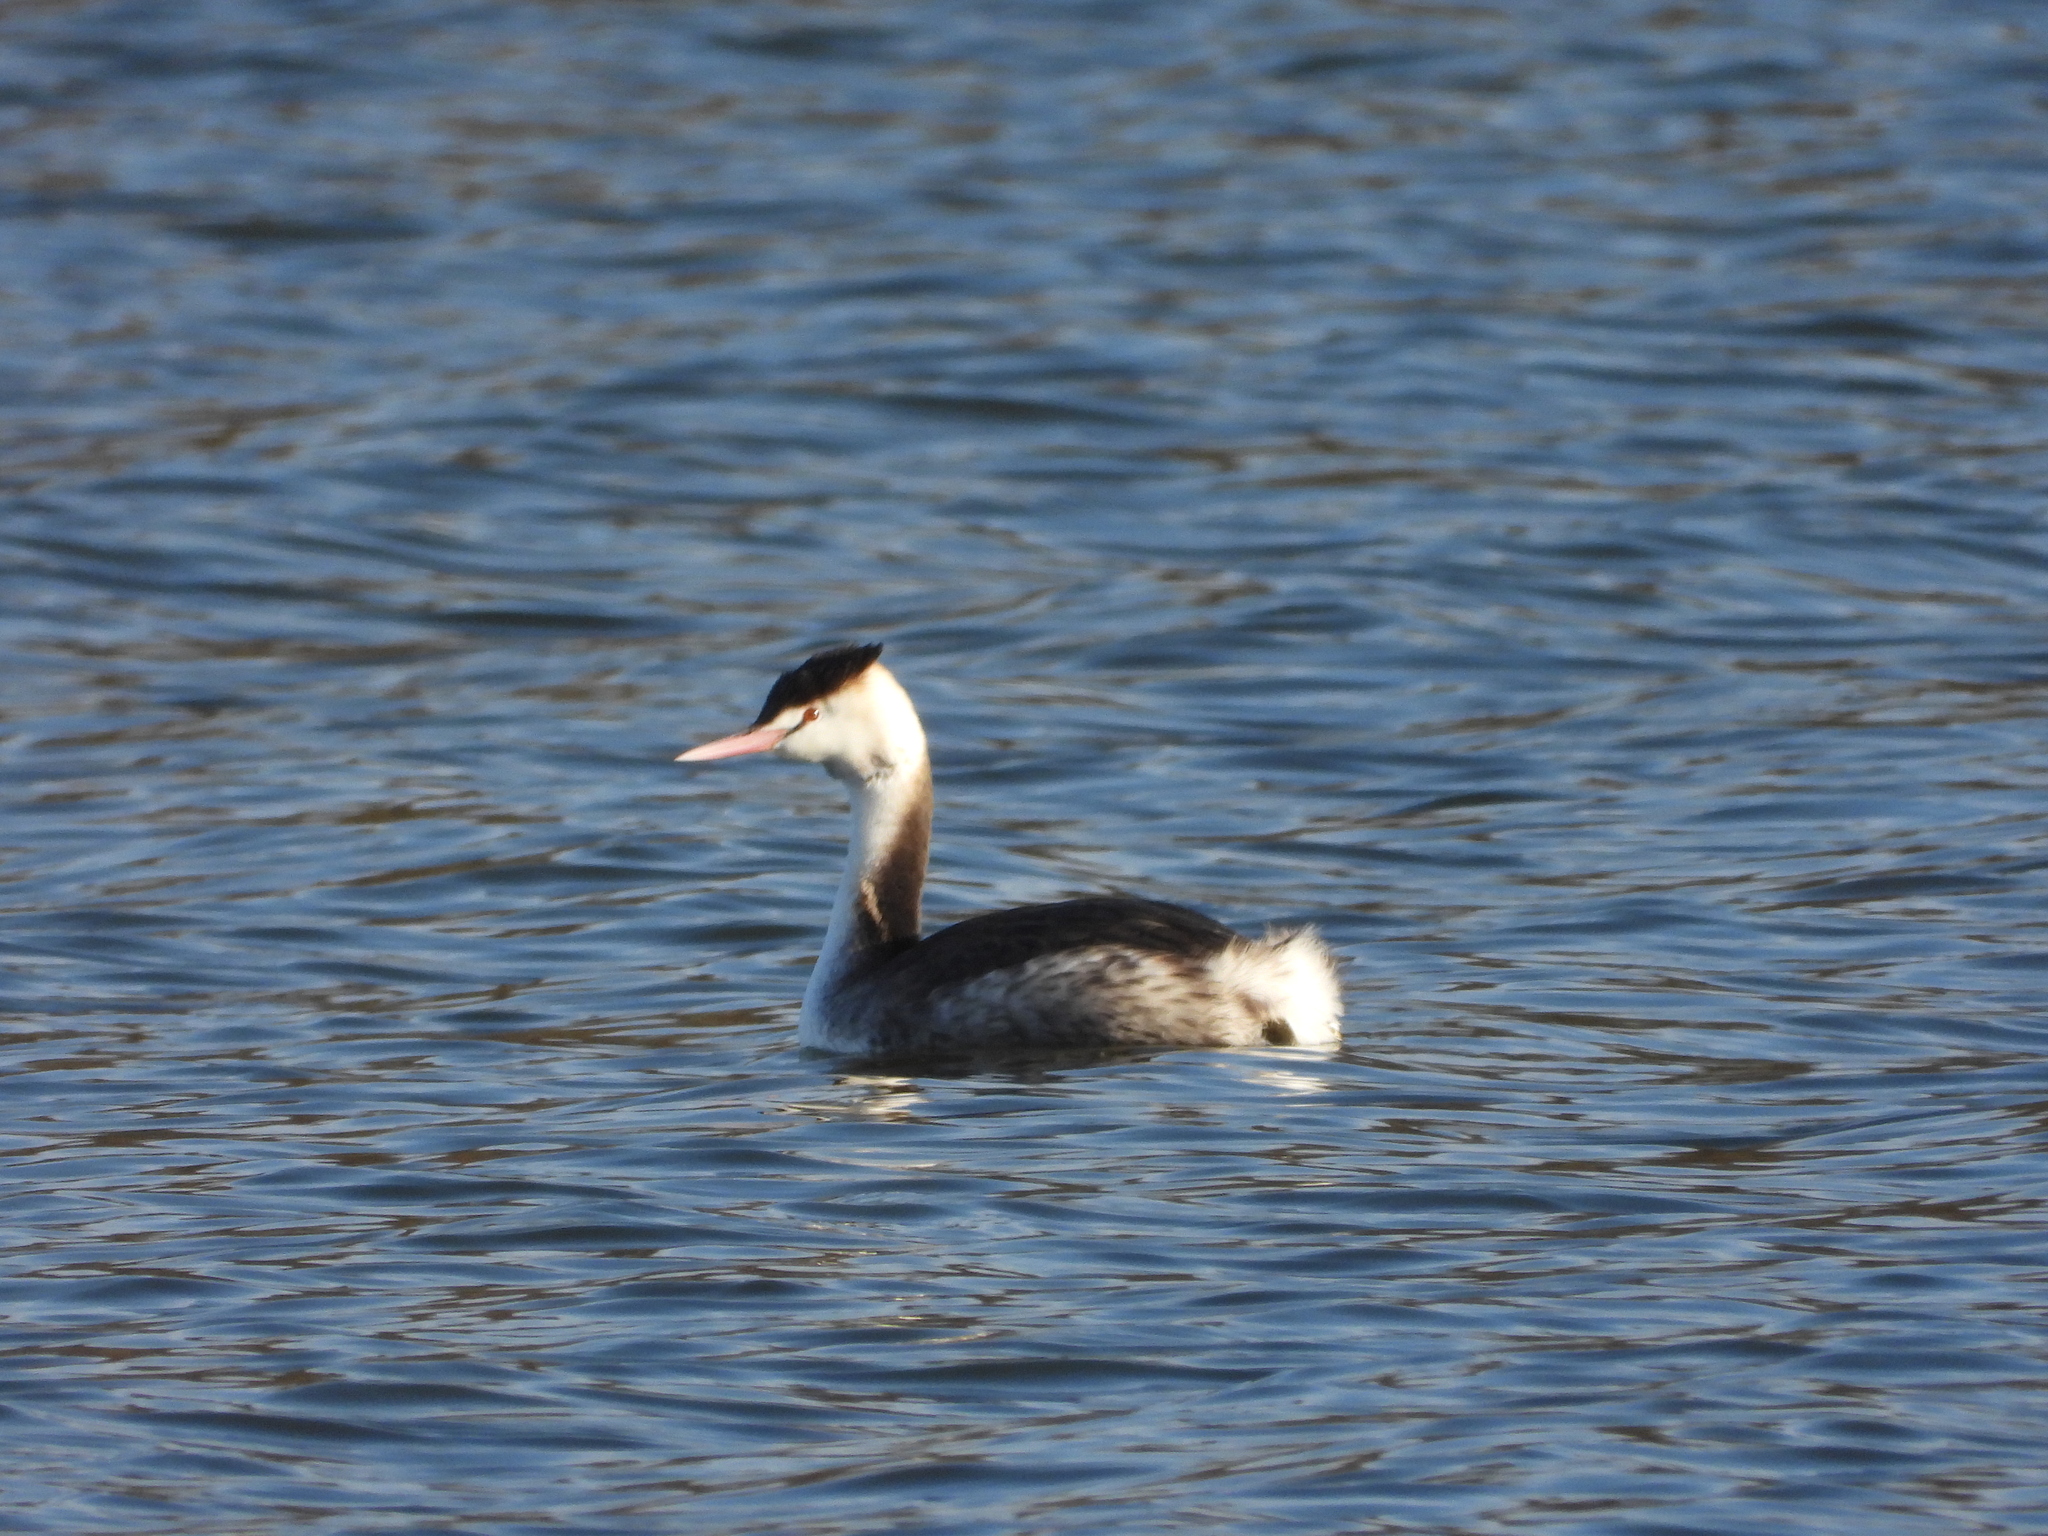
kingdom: Animalia
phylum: Chordata
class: Aves
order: Podicipediformes
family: Podicipedidae
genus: Podiceps
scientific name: Podiceps cristatus
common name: Great crested grebe
